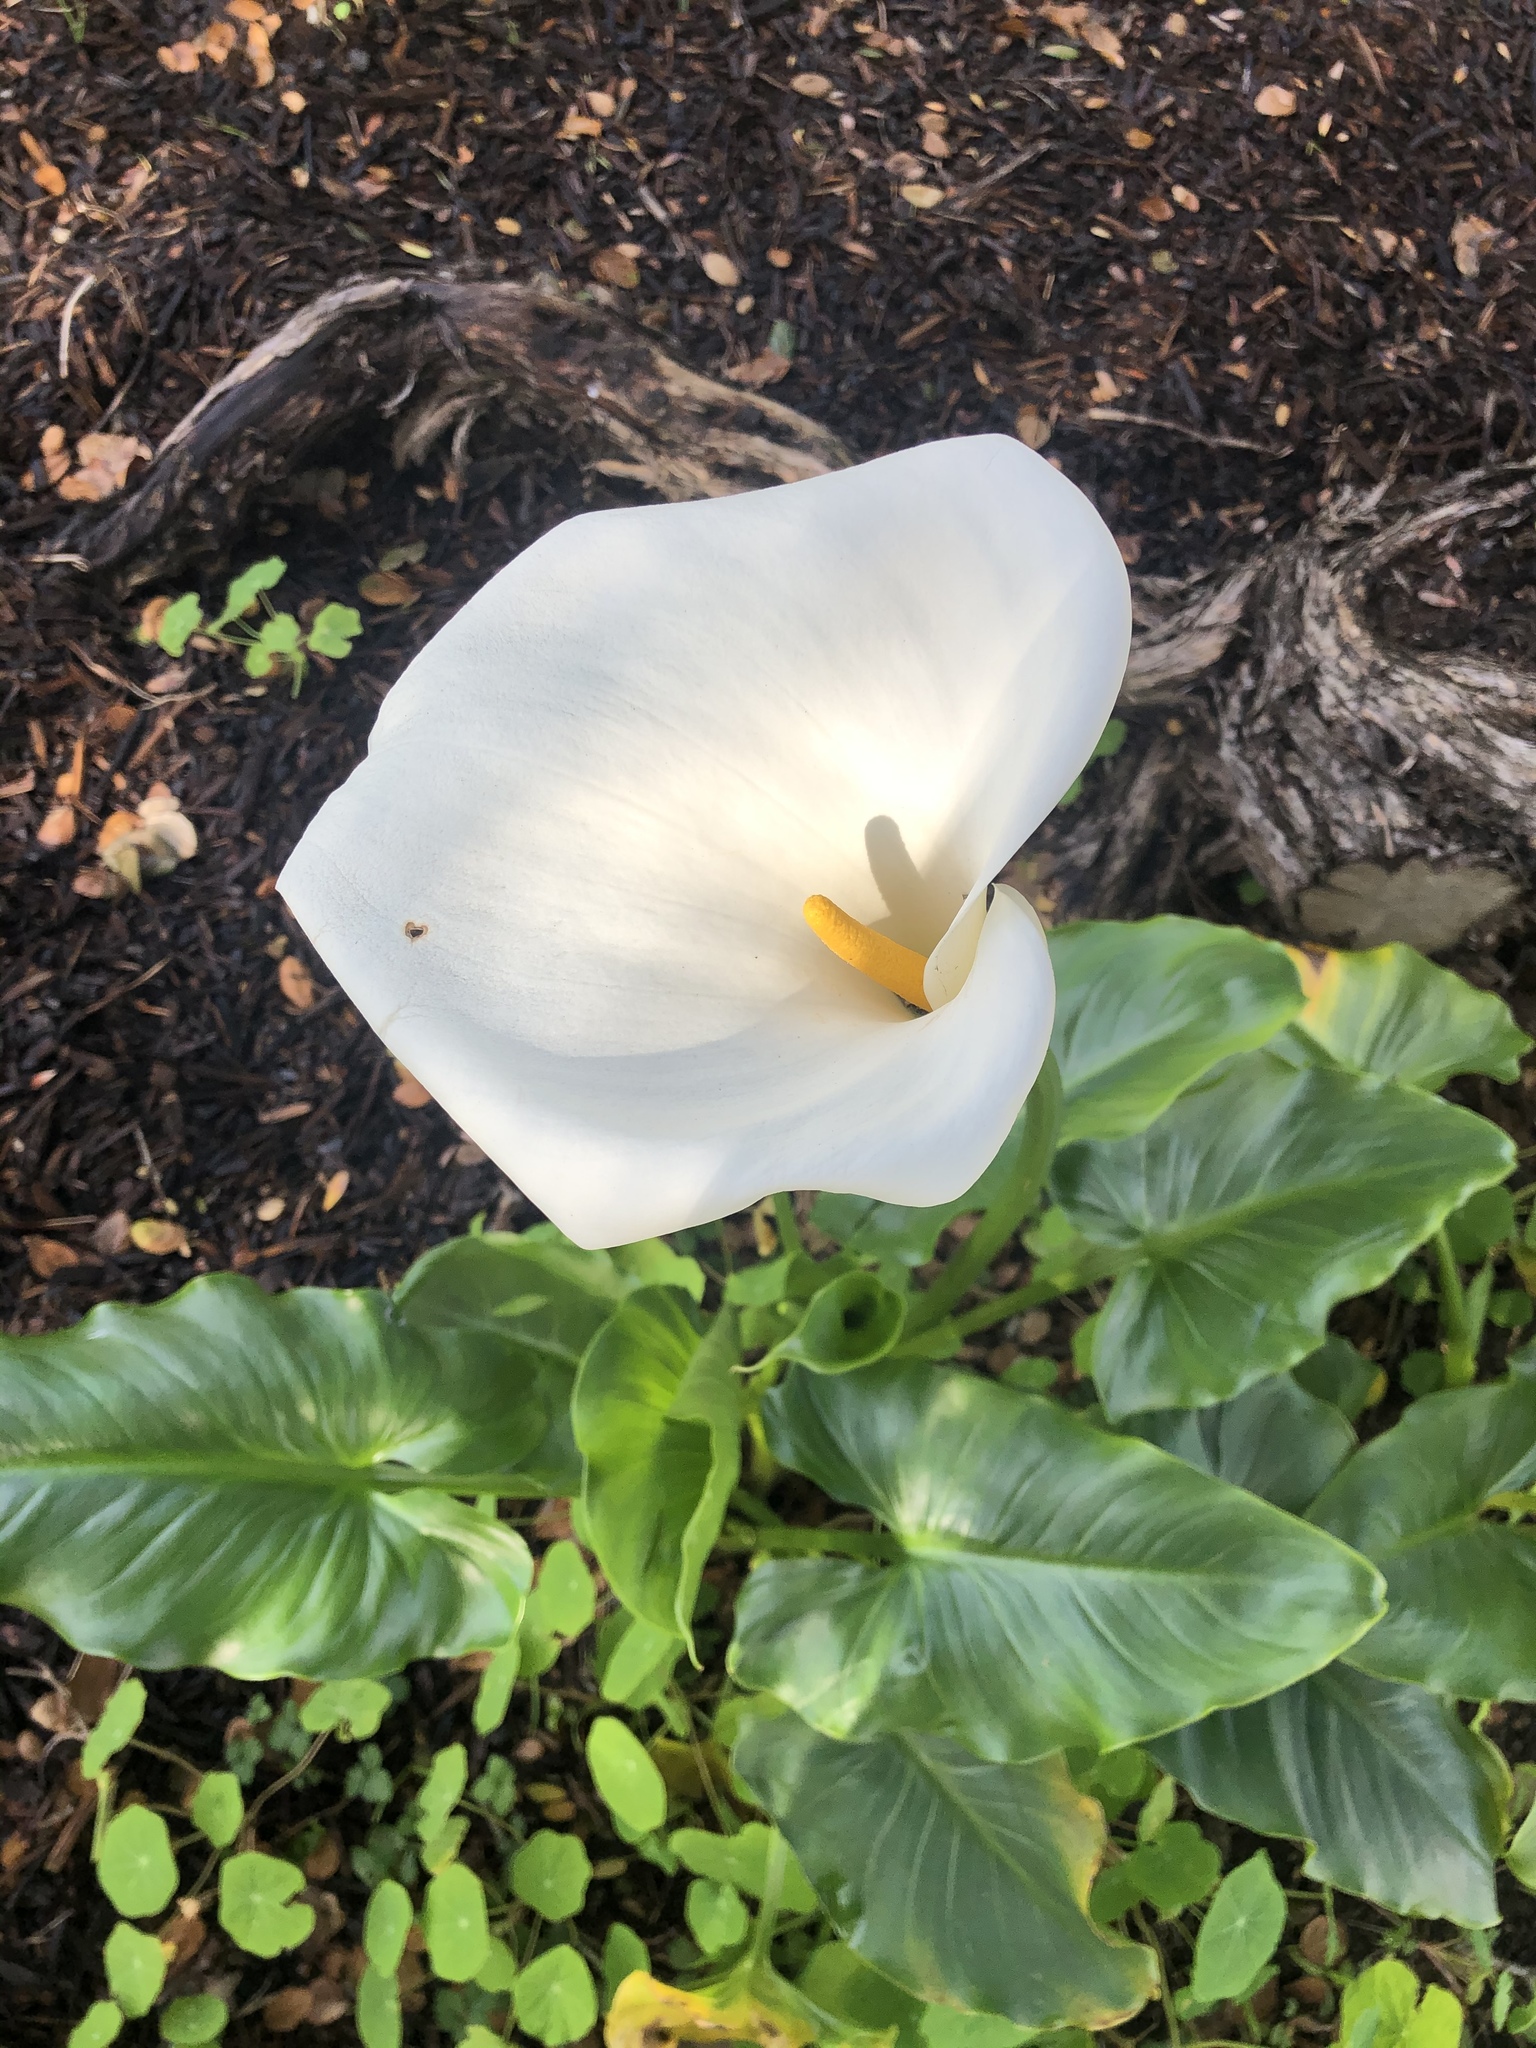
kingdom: Plantae
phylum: Tracheophyta
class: Liliopsida
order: Alismatales
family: Araceae
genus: Zantedeschia
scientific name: Zantedeschia aethiopica
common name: Altar-lily
